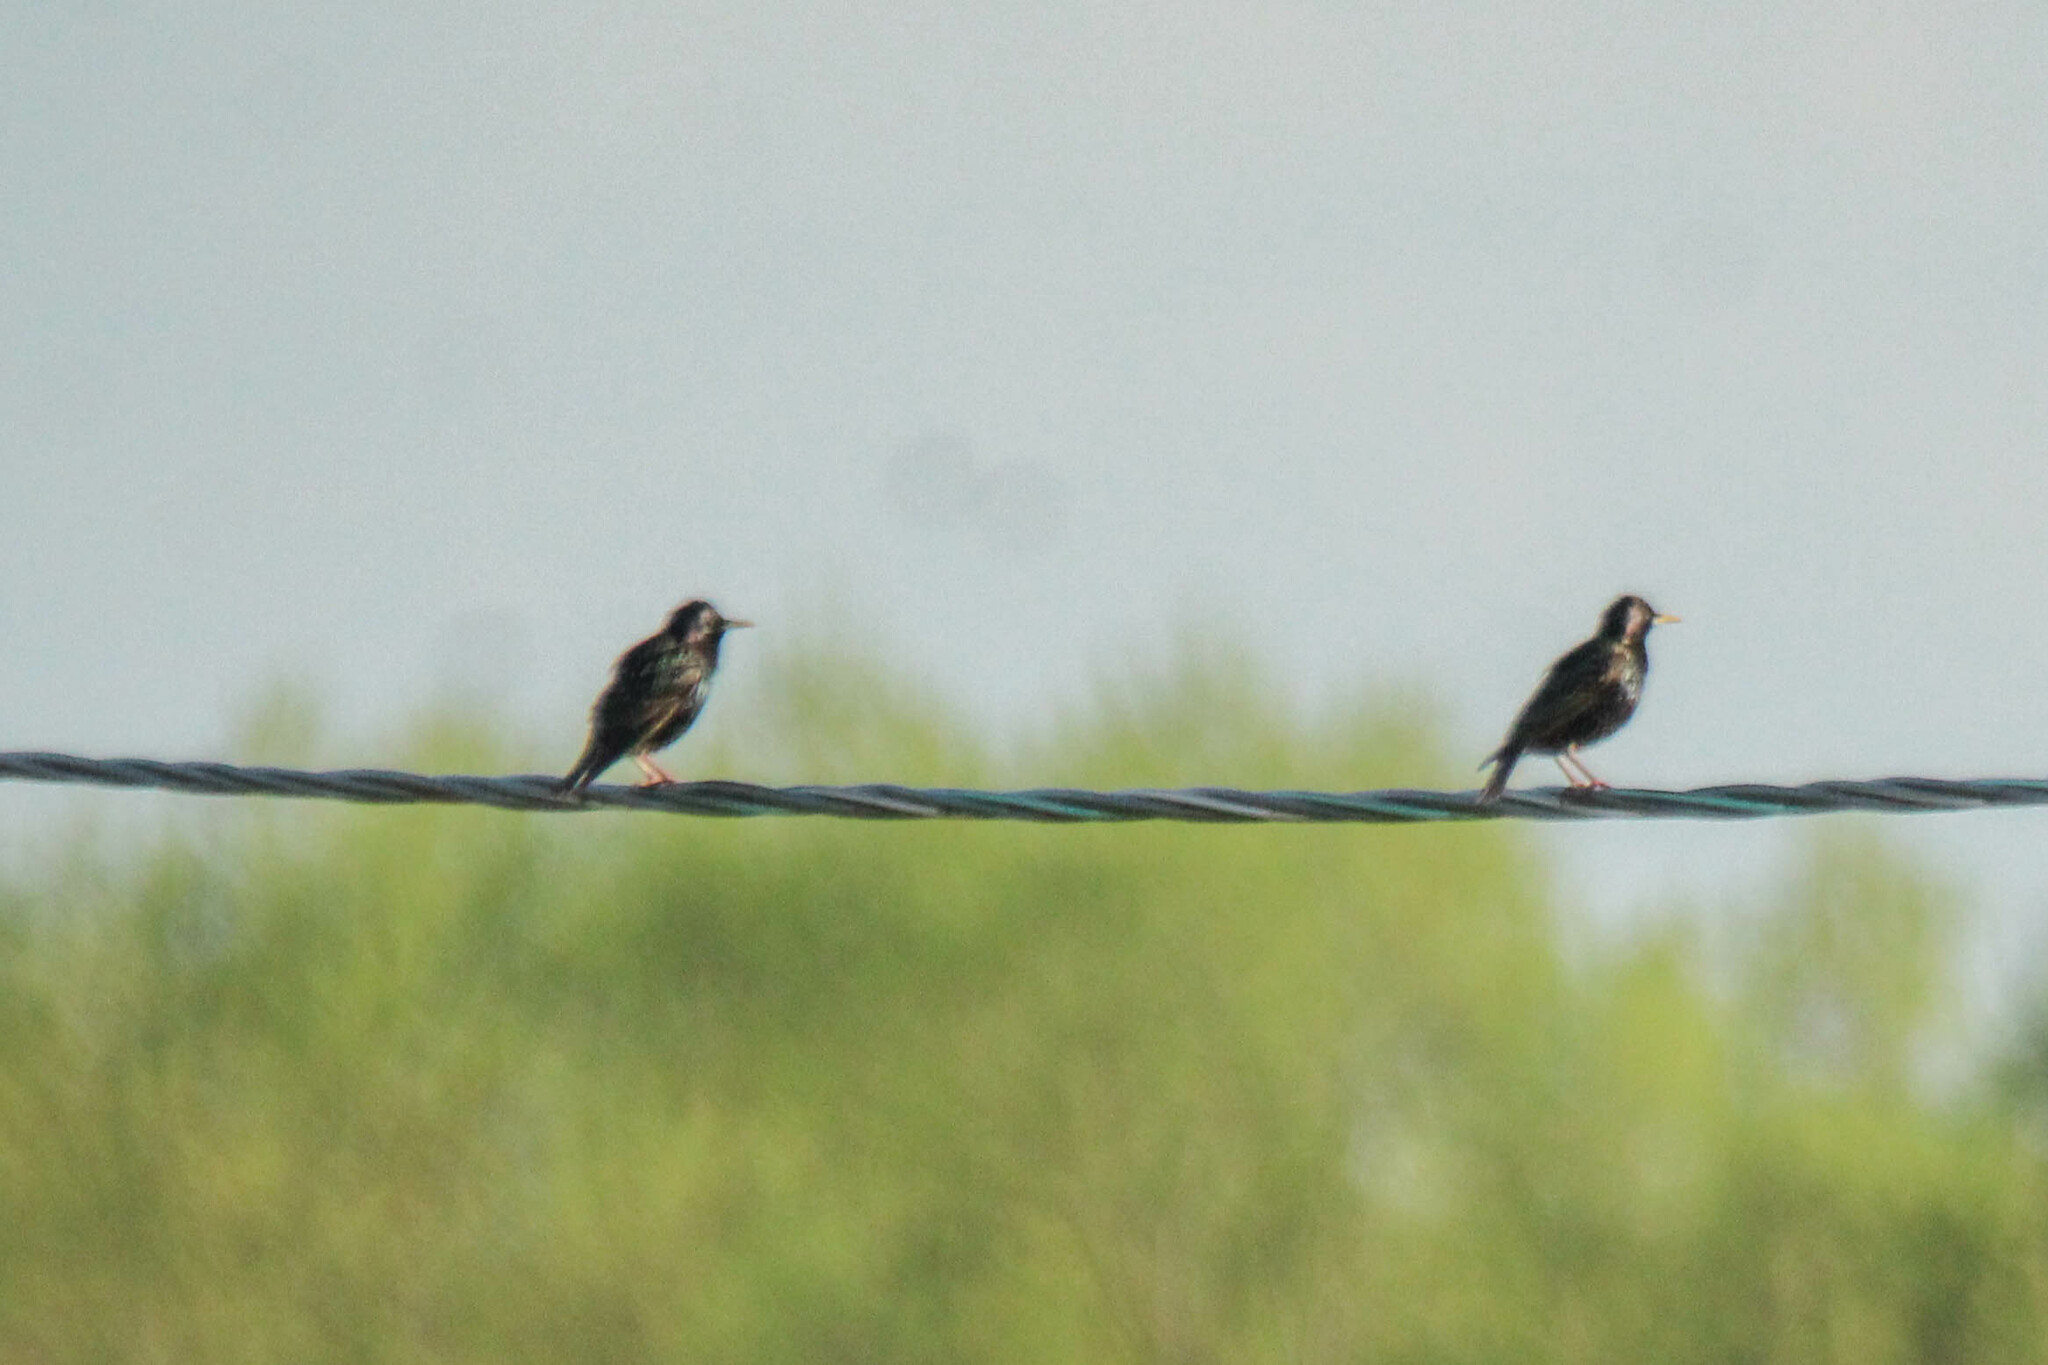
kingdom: Animalia
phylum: Chordata
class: Aves
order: Passeriformes
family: Sturnidae
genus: Sturnus
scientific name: Sturnus vulgaris
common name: Common starling
